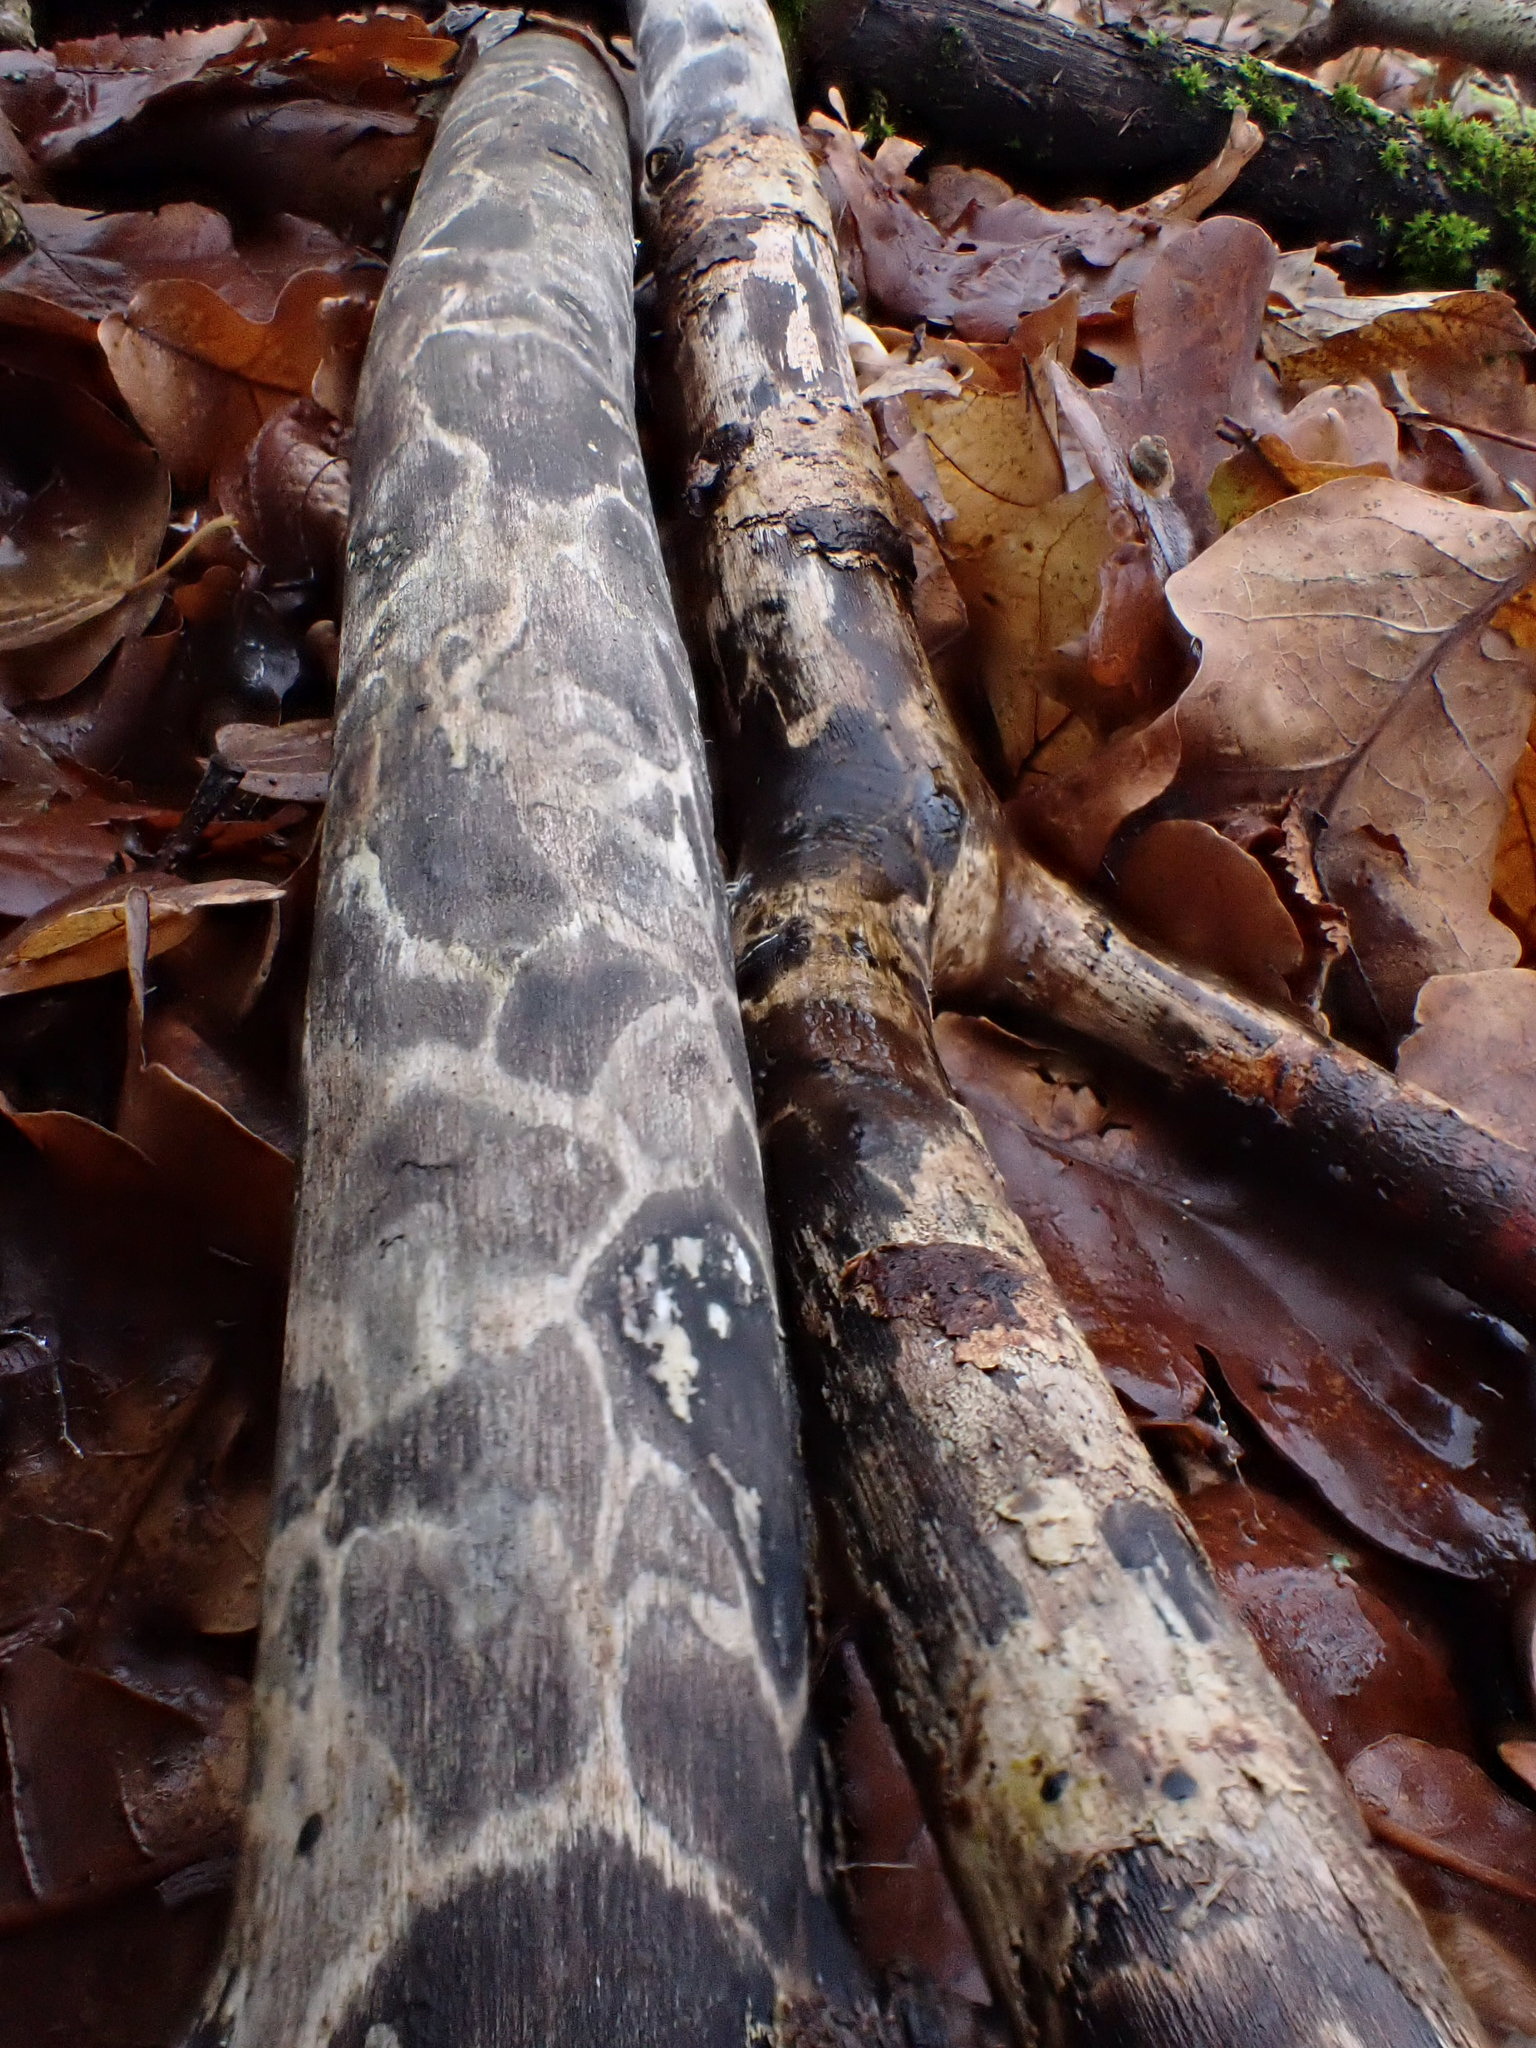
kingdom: Fungi
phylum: Ascomycota
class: Sordariomycetes
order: Xylariales
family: Xylariaceae
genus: Xylaria
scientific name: Xylaria longipes
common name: Dead moll's fingers
